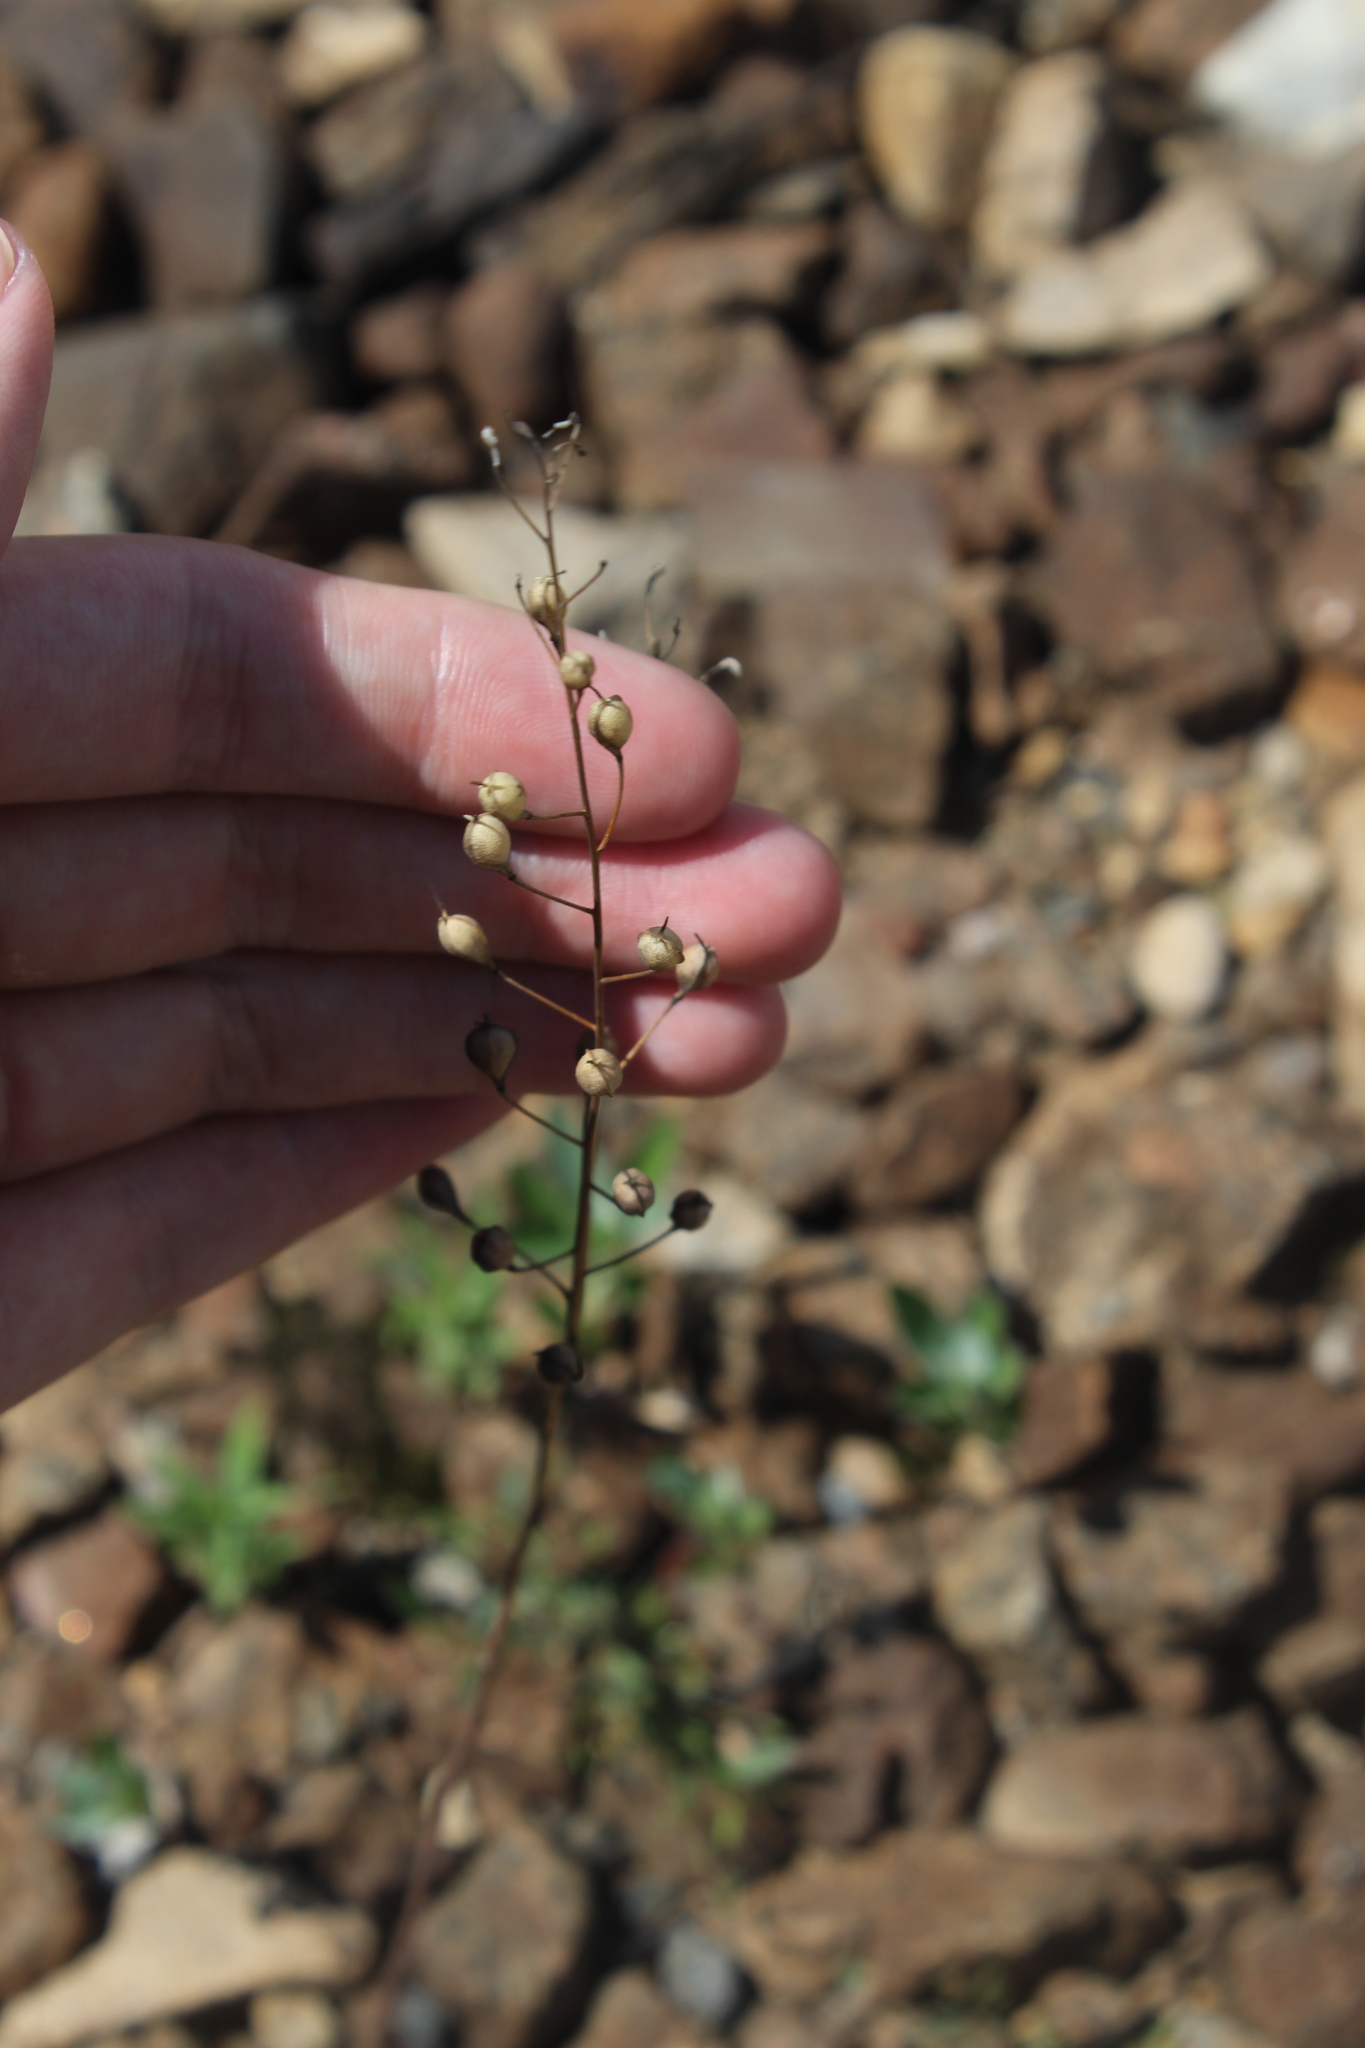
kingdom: Plantae
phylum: Tracheophyta
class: Magnoliopsida
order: Brassicales
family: Brassicaceae
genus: Camelina
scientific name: Camelina microcarpa
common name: Lesser gold-of-pleasure
